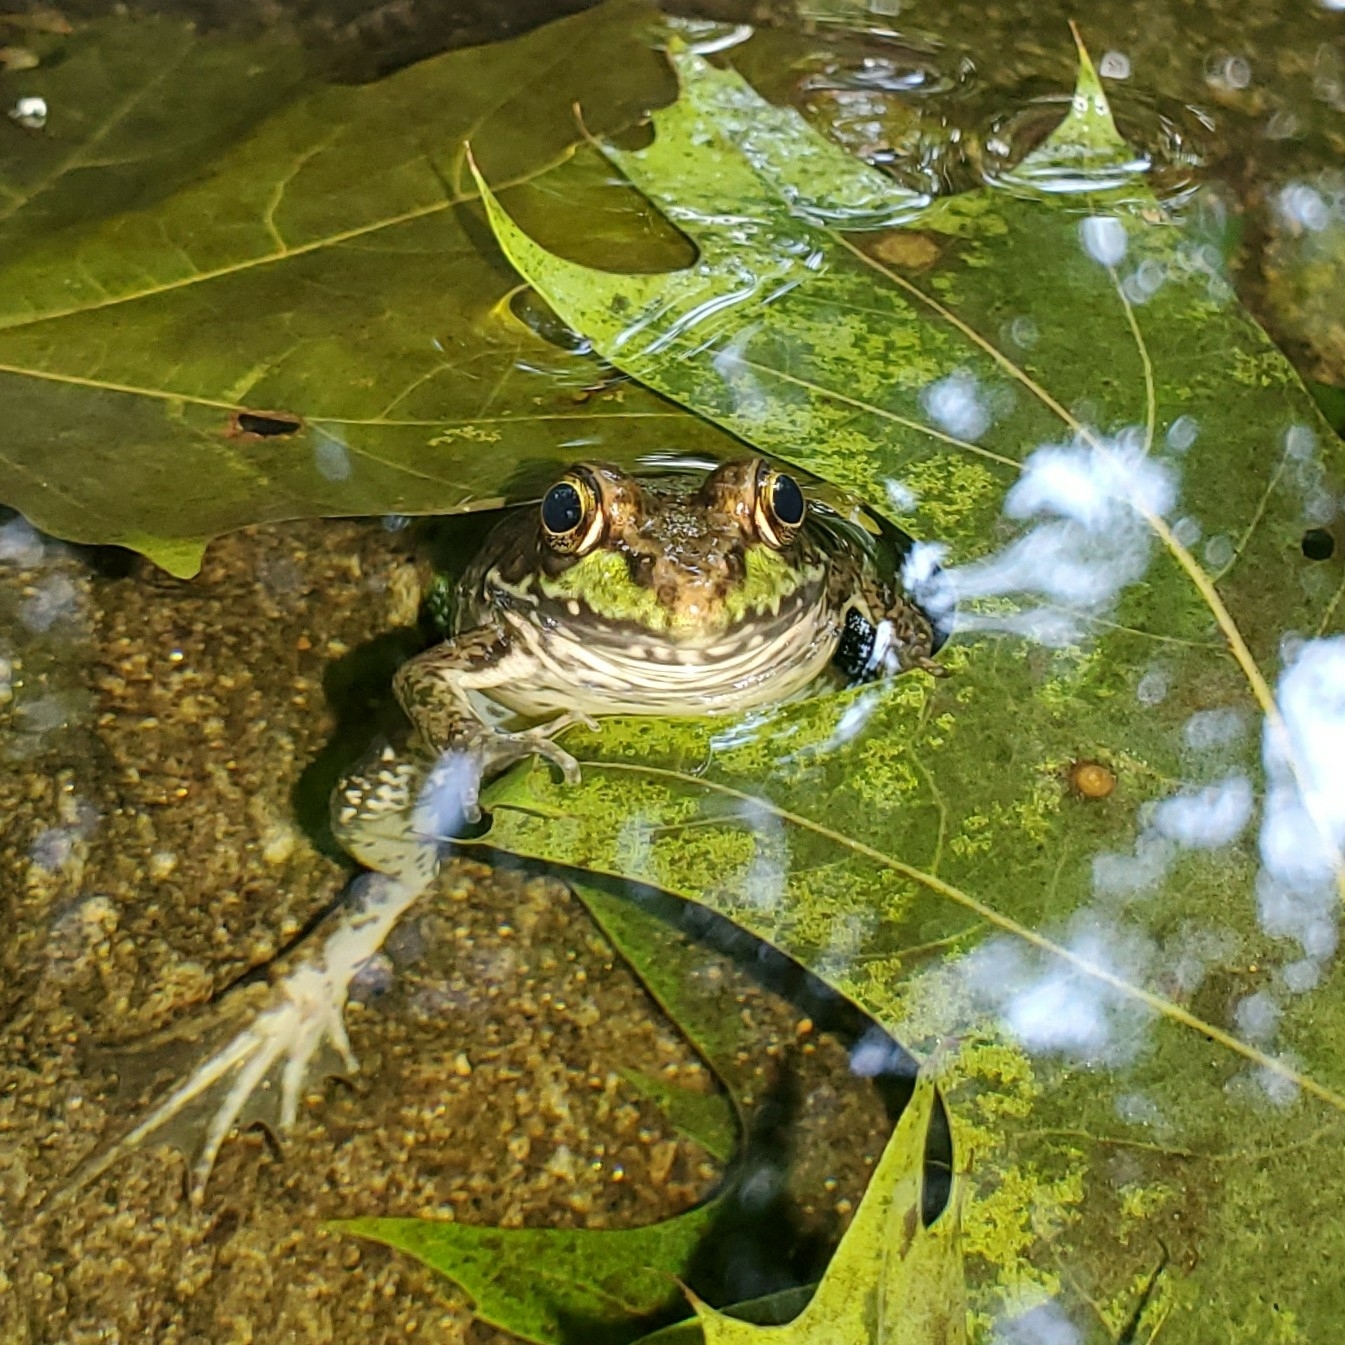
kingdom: Animalia
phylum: Chordata
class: Amphibia
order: Anura
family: Ranidae
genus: Lithobates
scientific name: Lithobates clamitans
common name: Green frog
